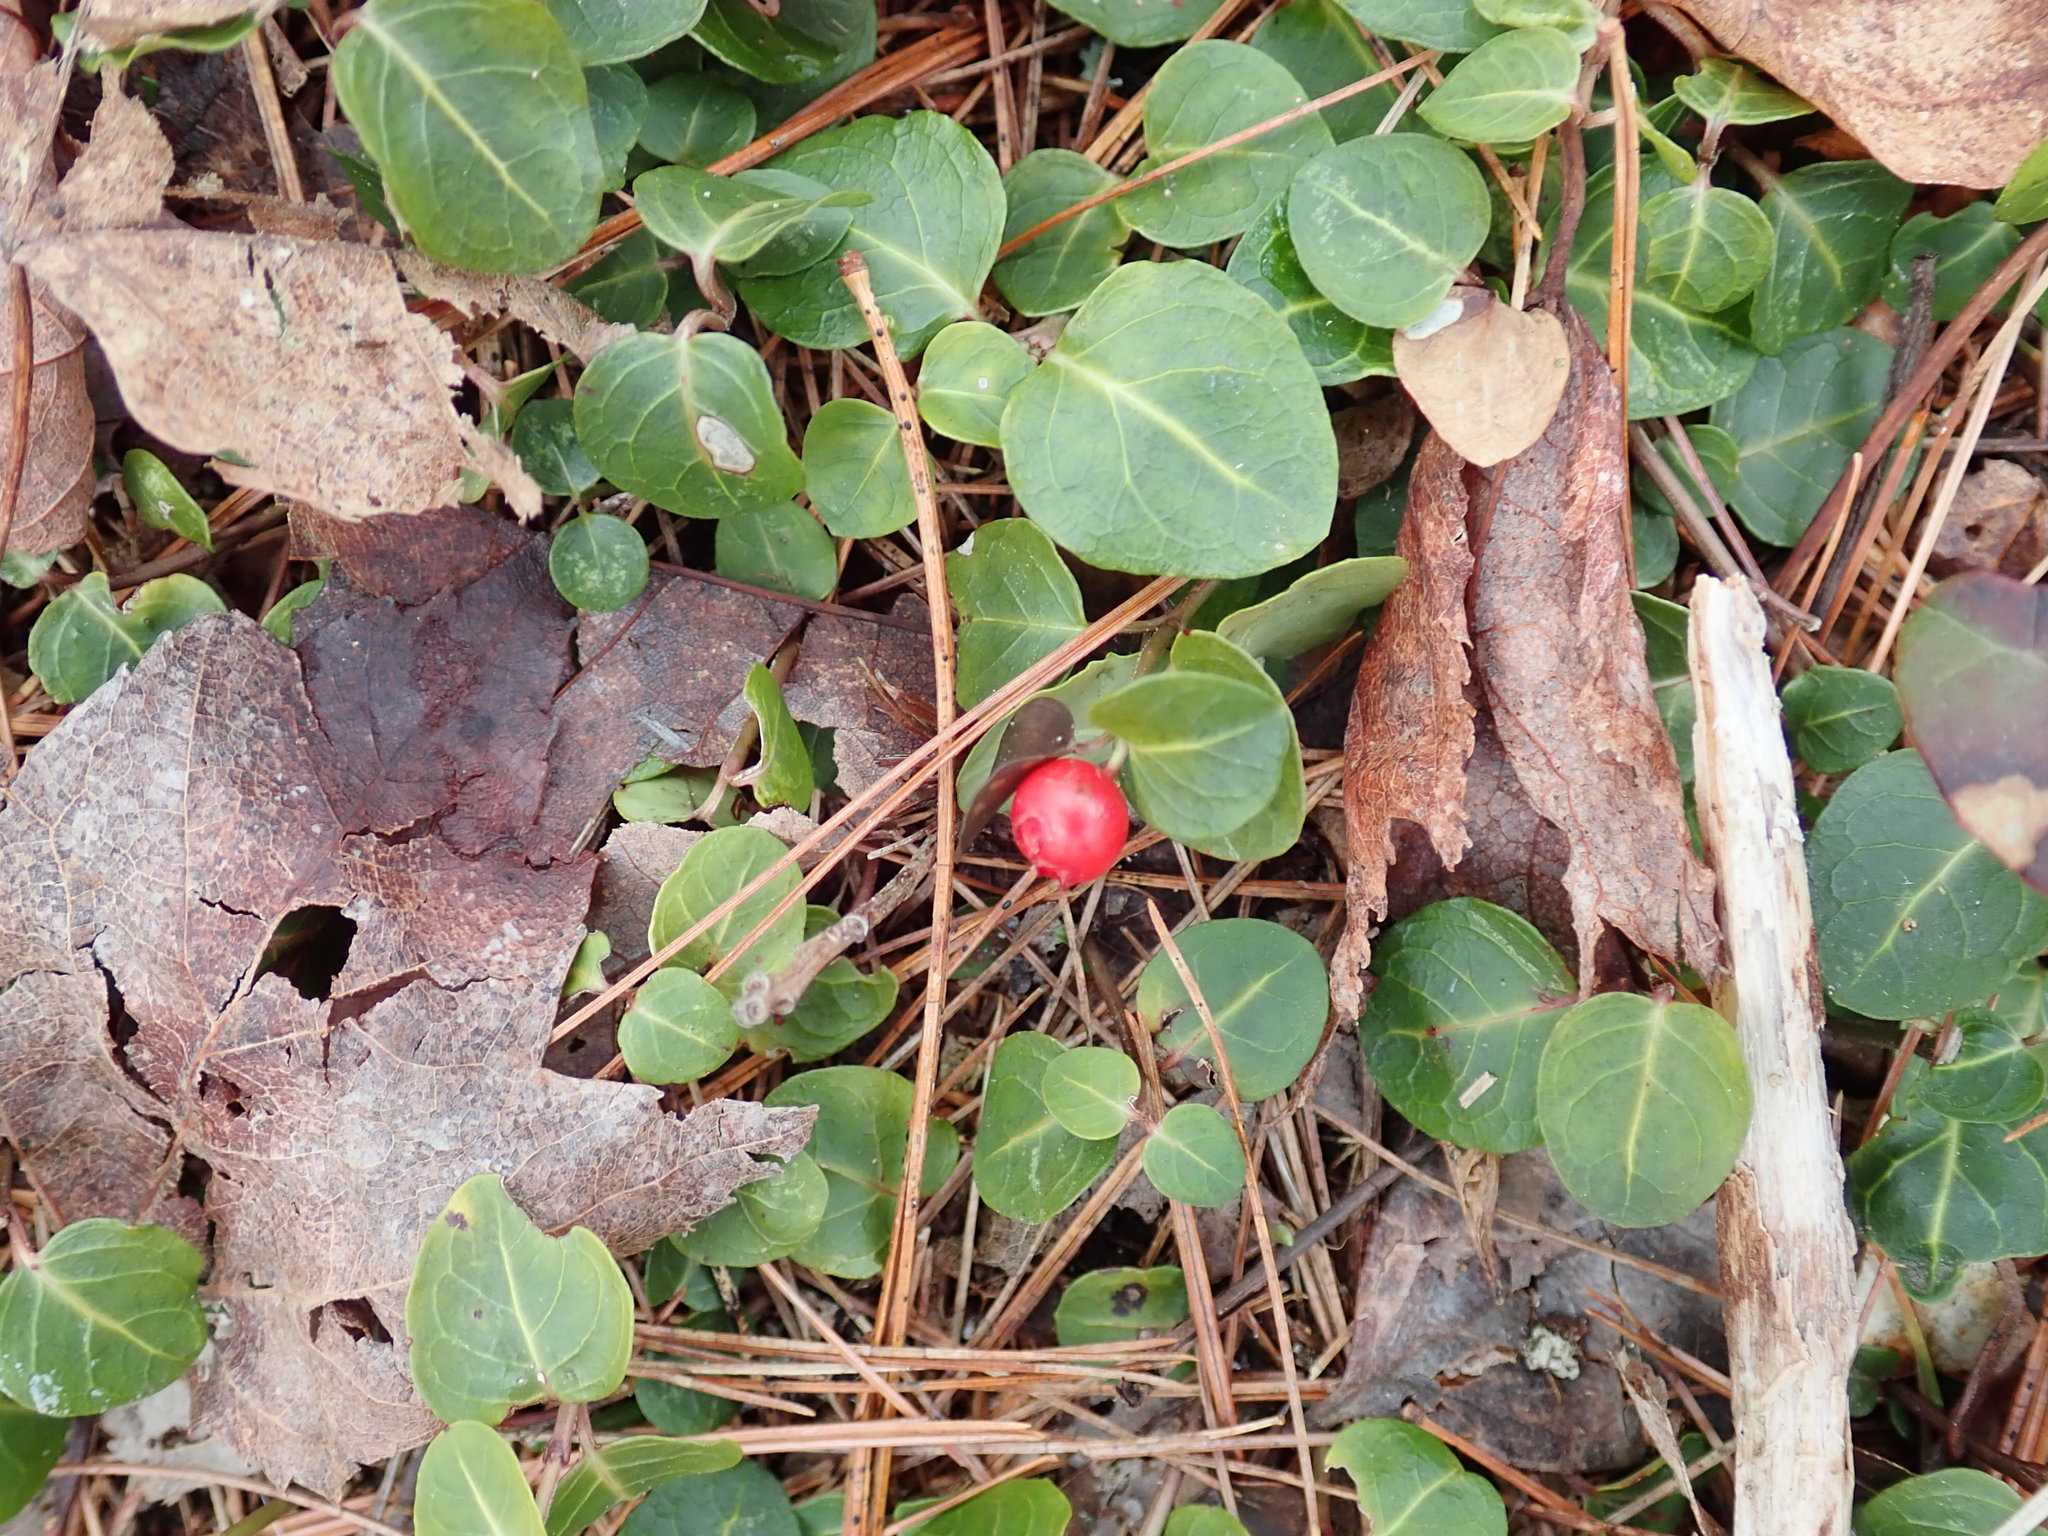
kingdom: Plantae
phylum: Tracheophyta
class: Magnoliopsida
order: Gentianales
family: Rubiaceae
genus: Mitchella
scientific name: Mitchella repens
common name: Partridge-berry
